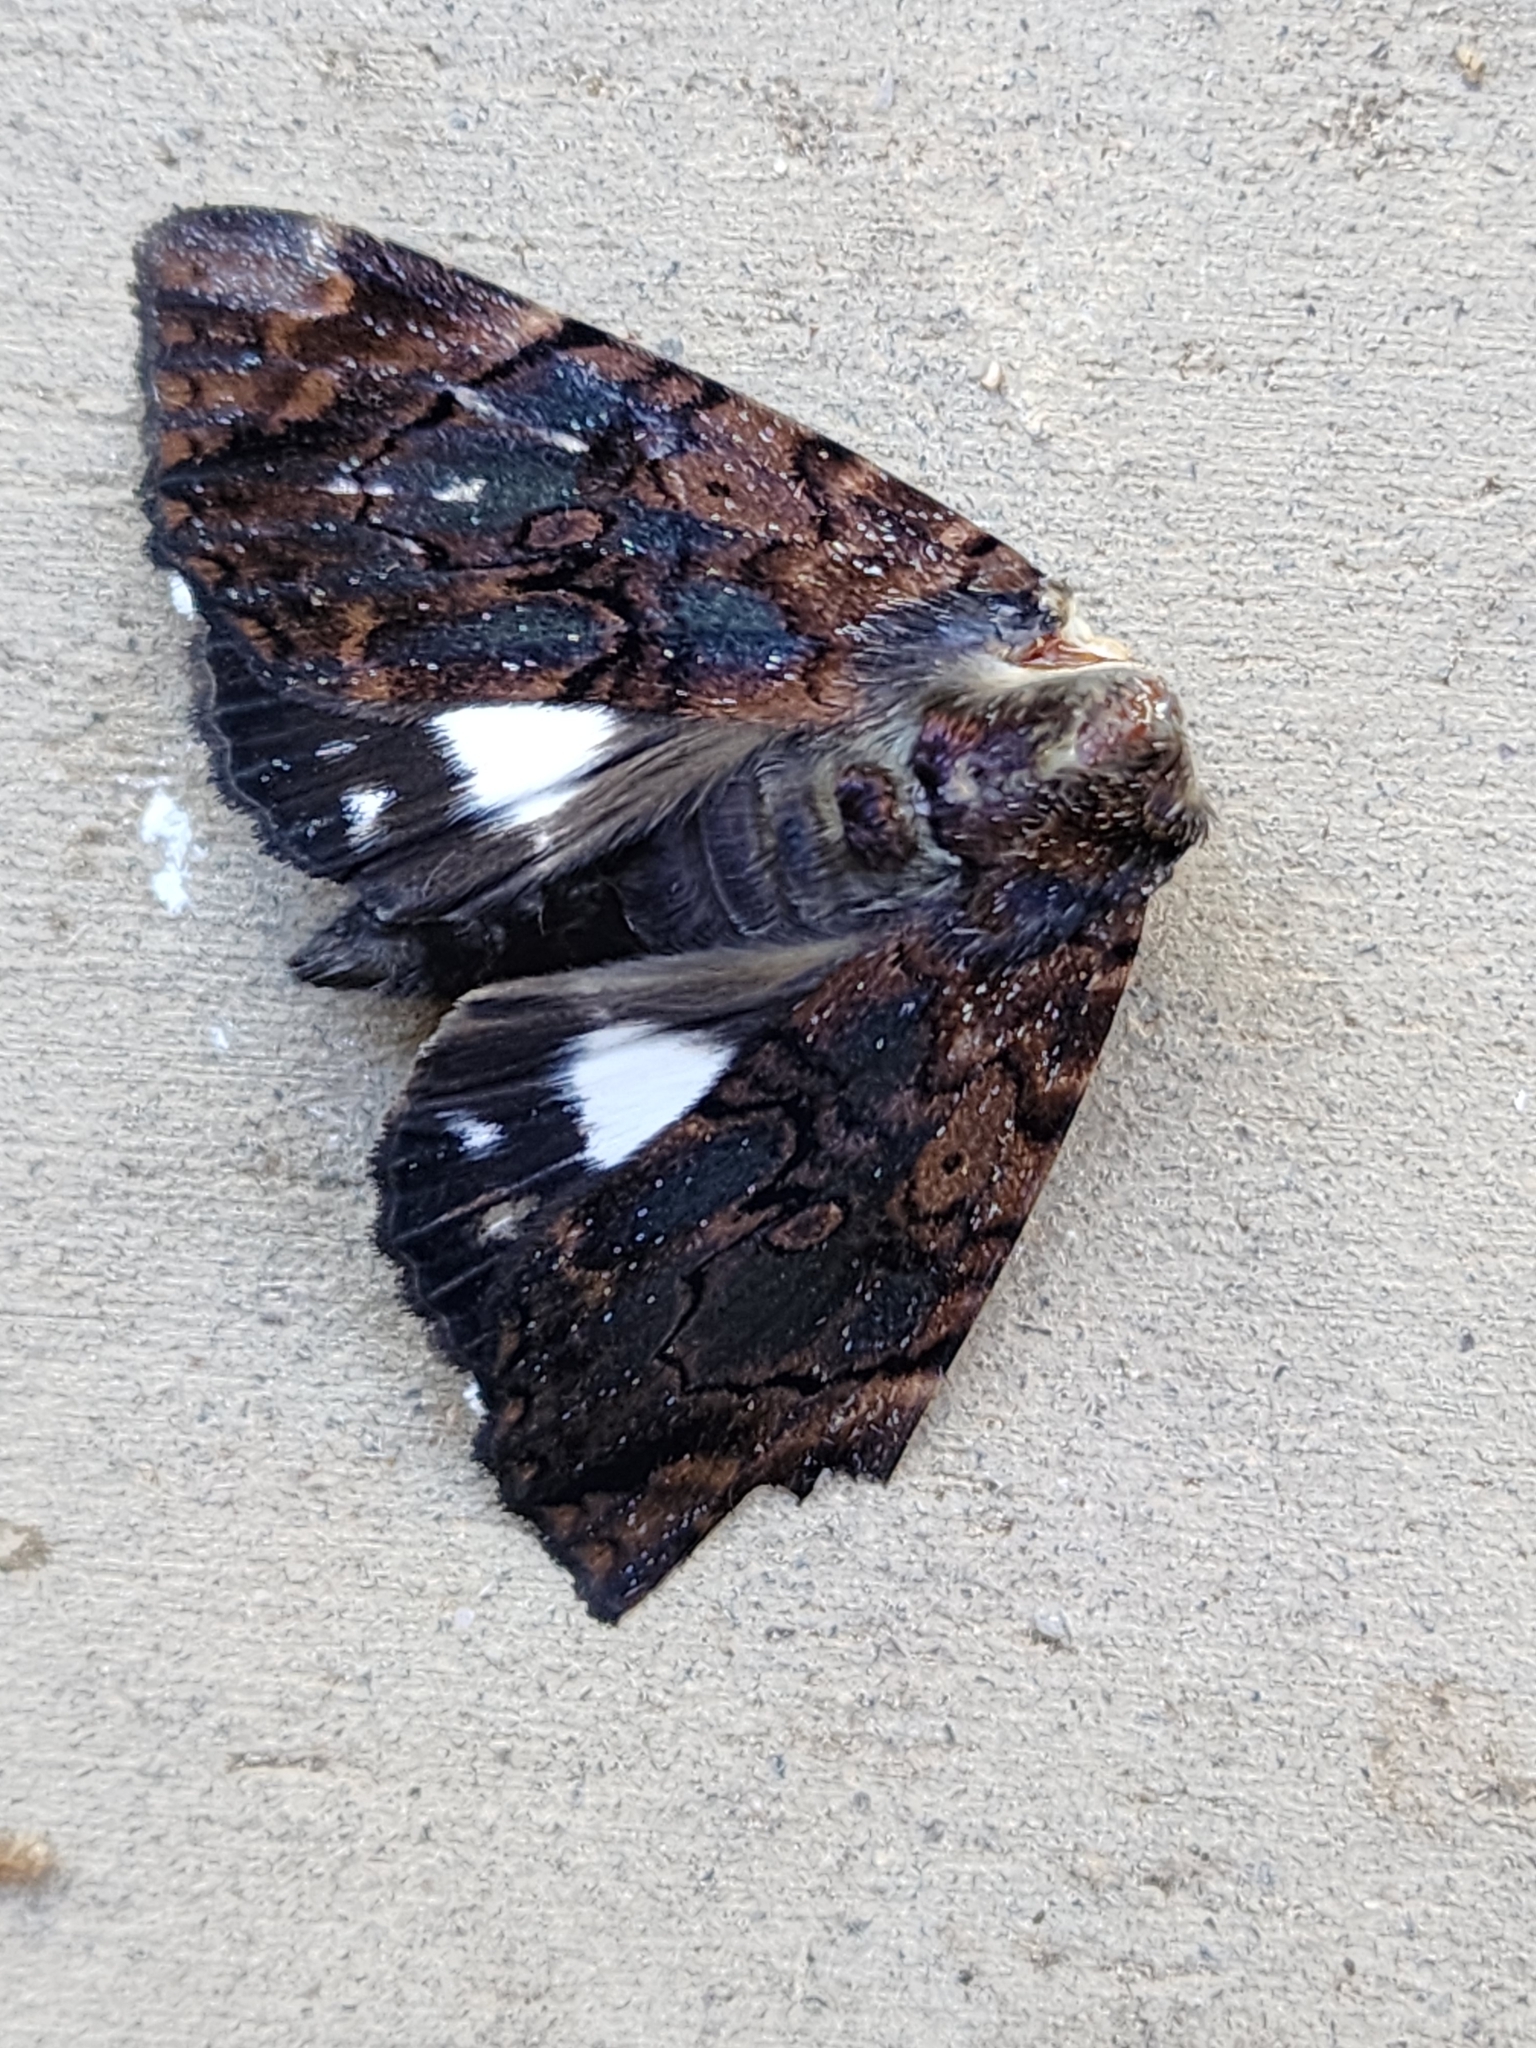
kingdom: Animalia
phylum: Arthropoda
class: Insecta
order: Lepidoptera
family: Erebidae
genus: Catephia
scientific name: Catephia linteola
